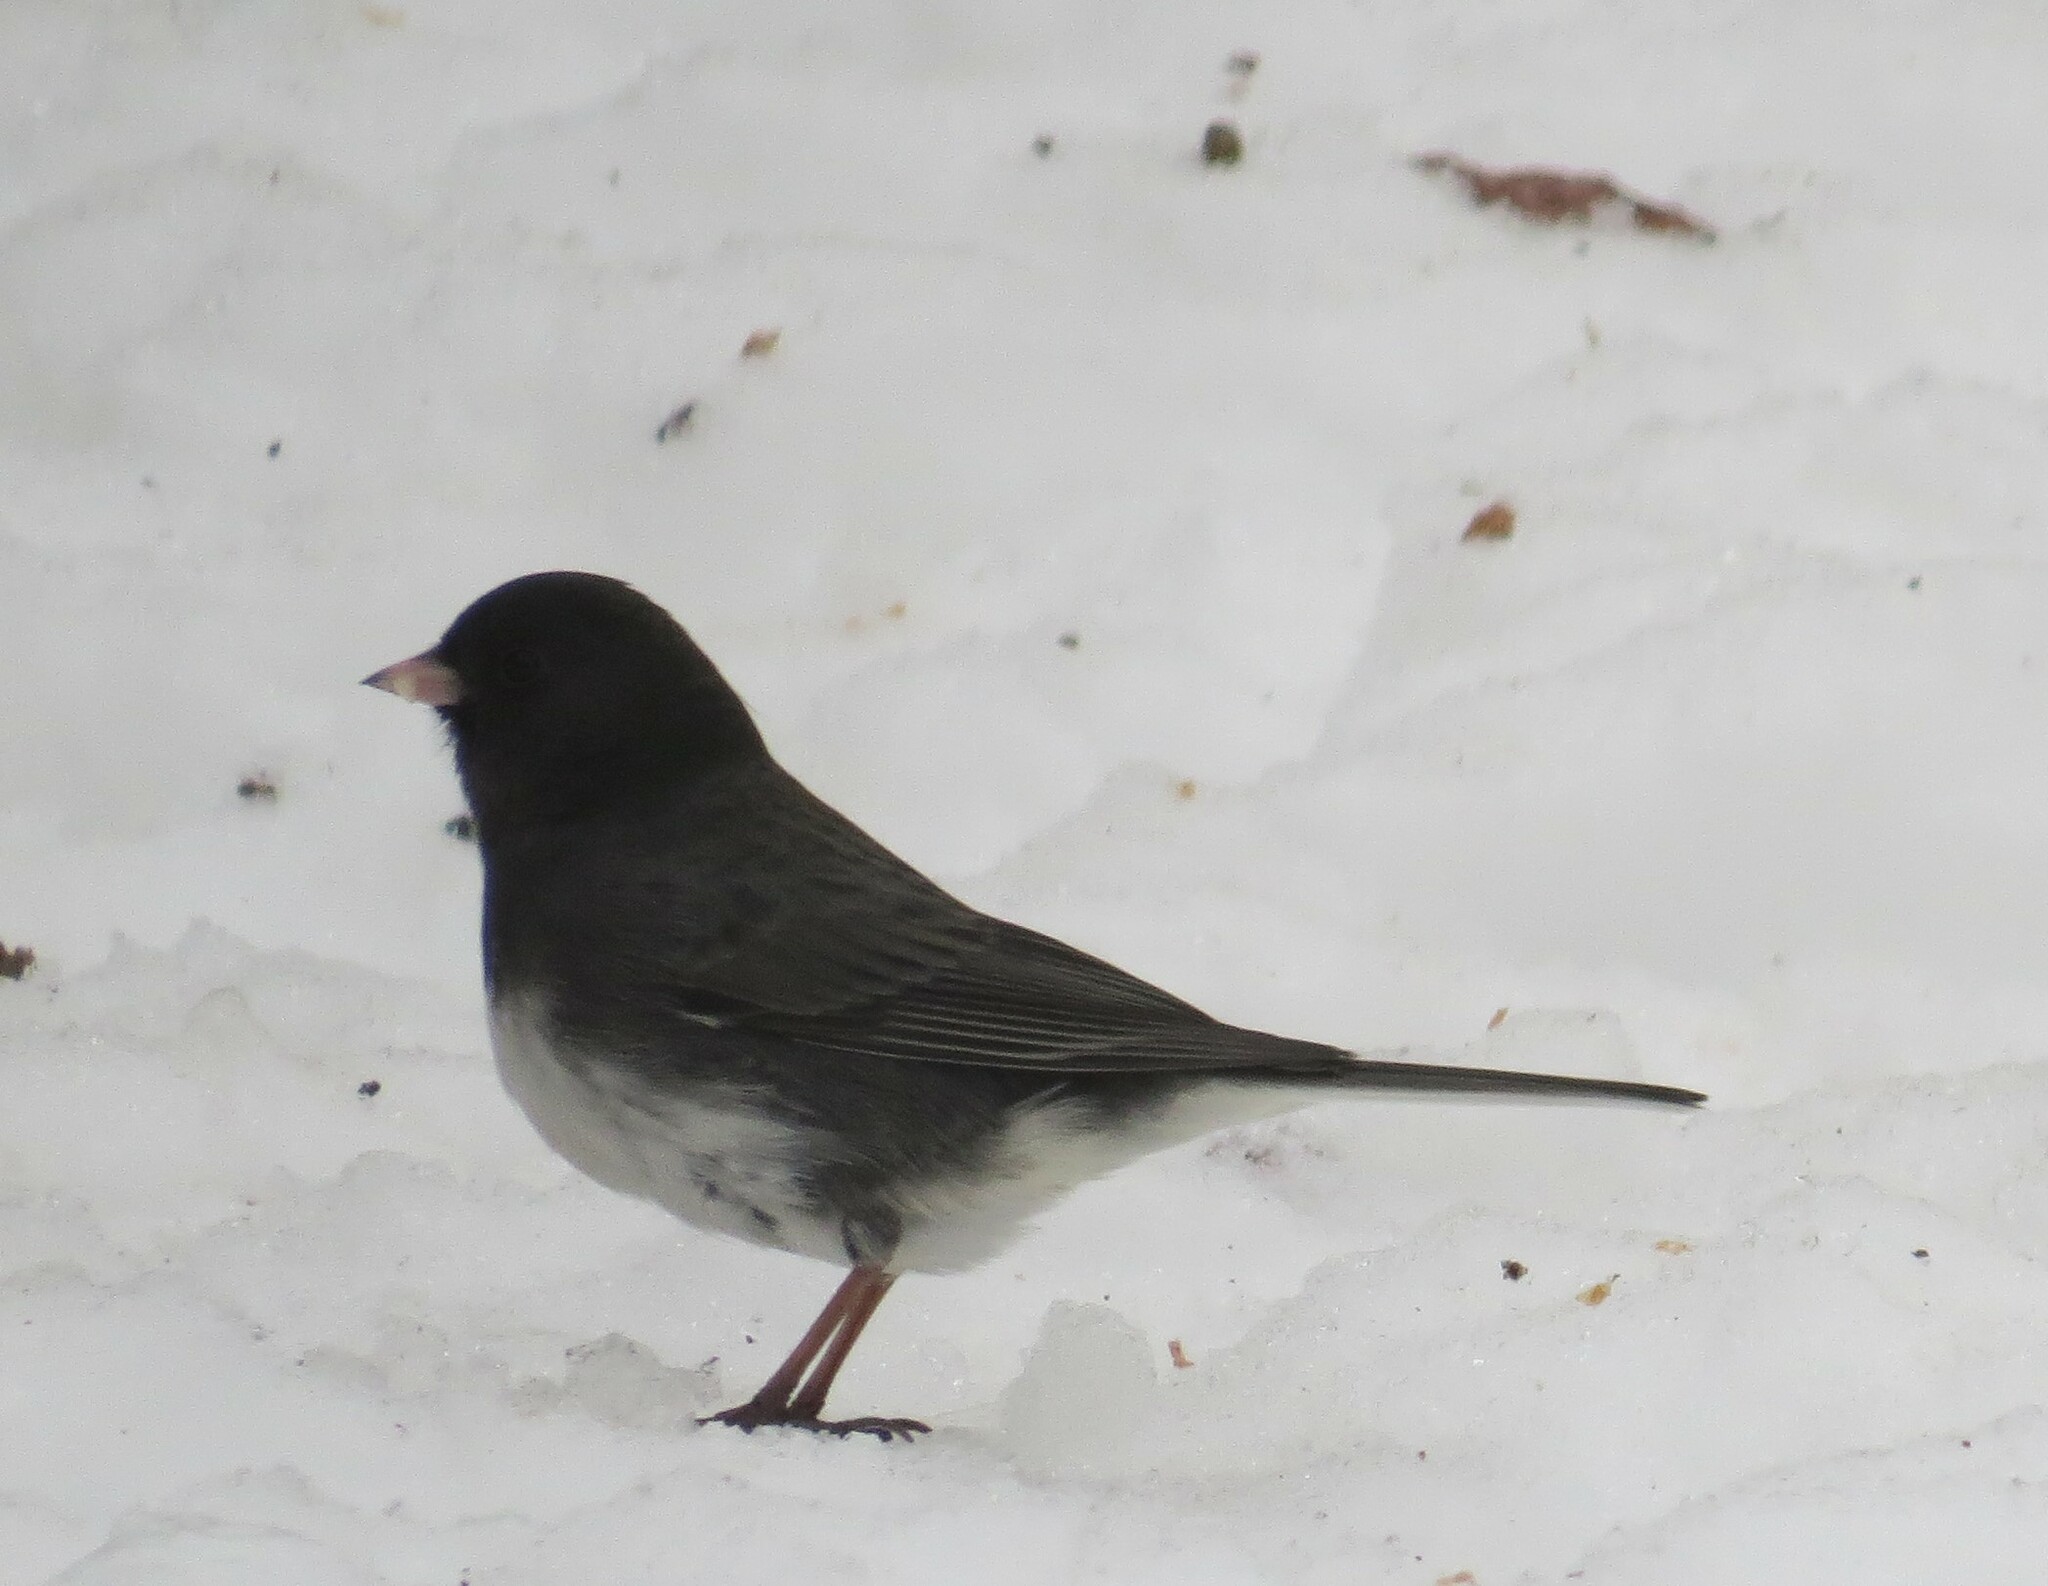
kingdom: Animalia
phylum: Chordata
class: Aves
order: Passeriformes
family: Passerellidae
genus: Junco
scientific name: Junco hyemalis
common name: Dark-eyed junco
